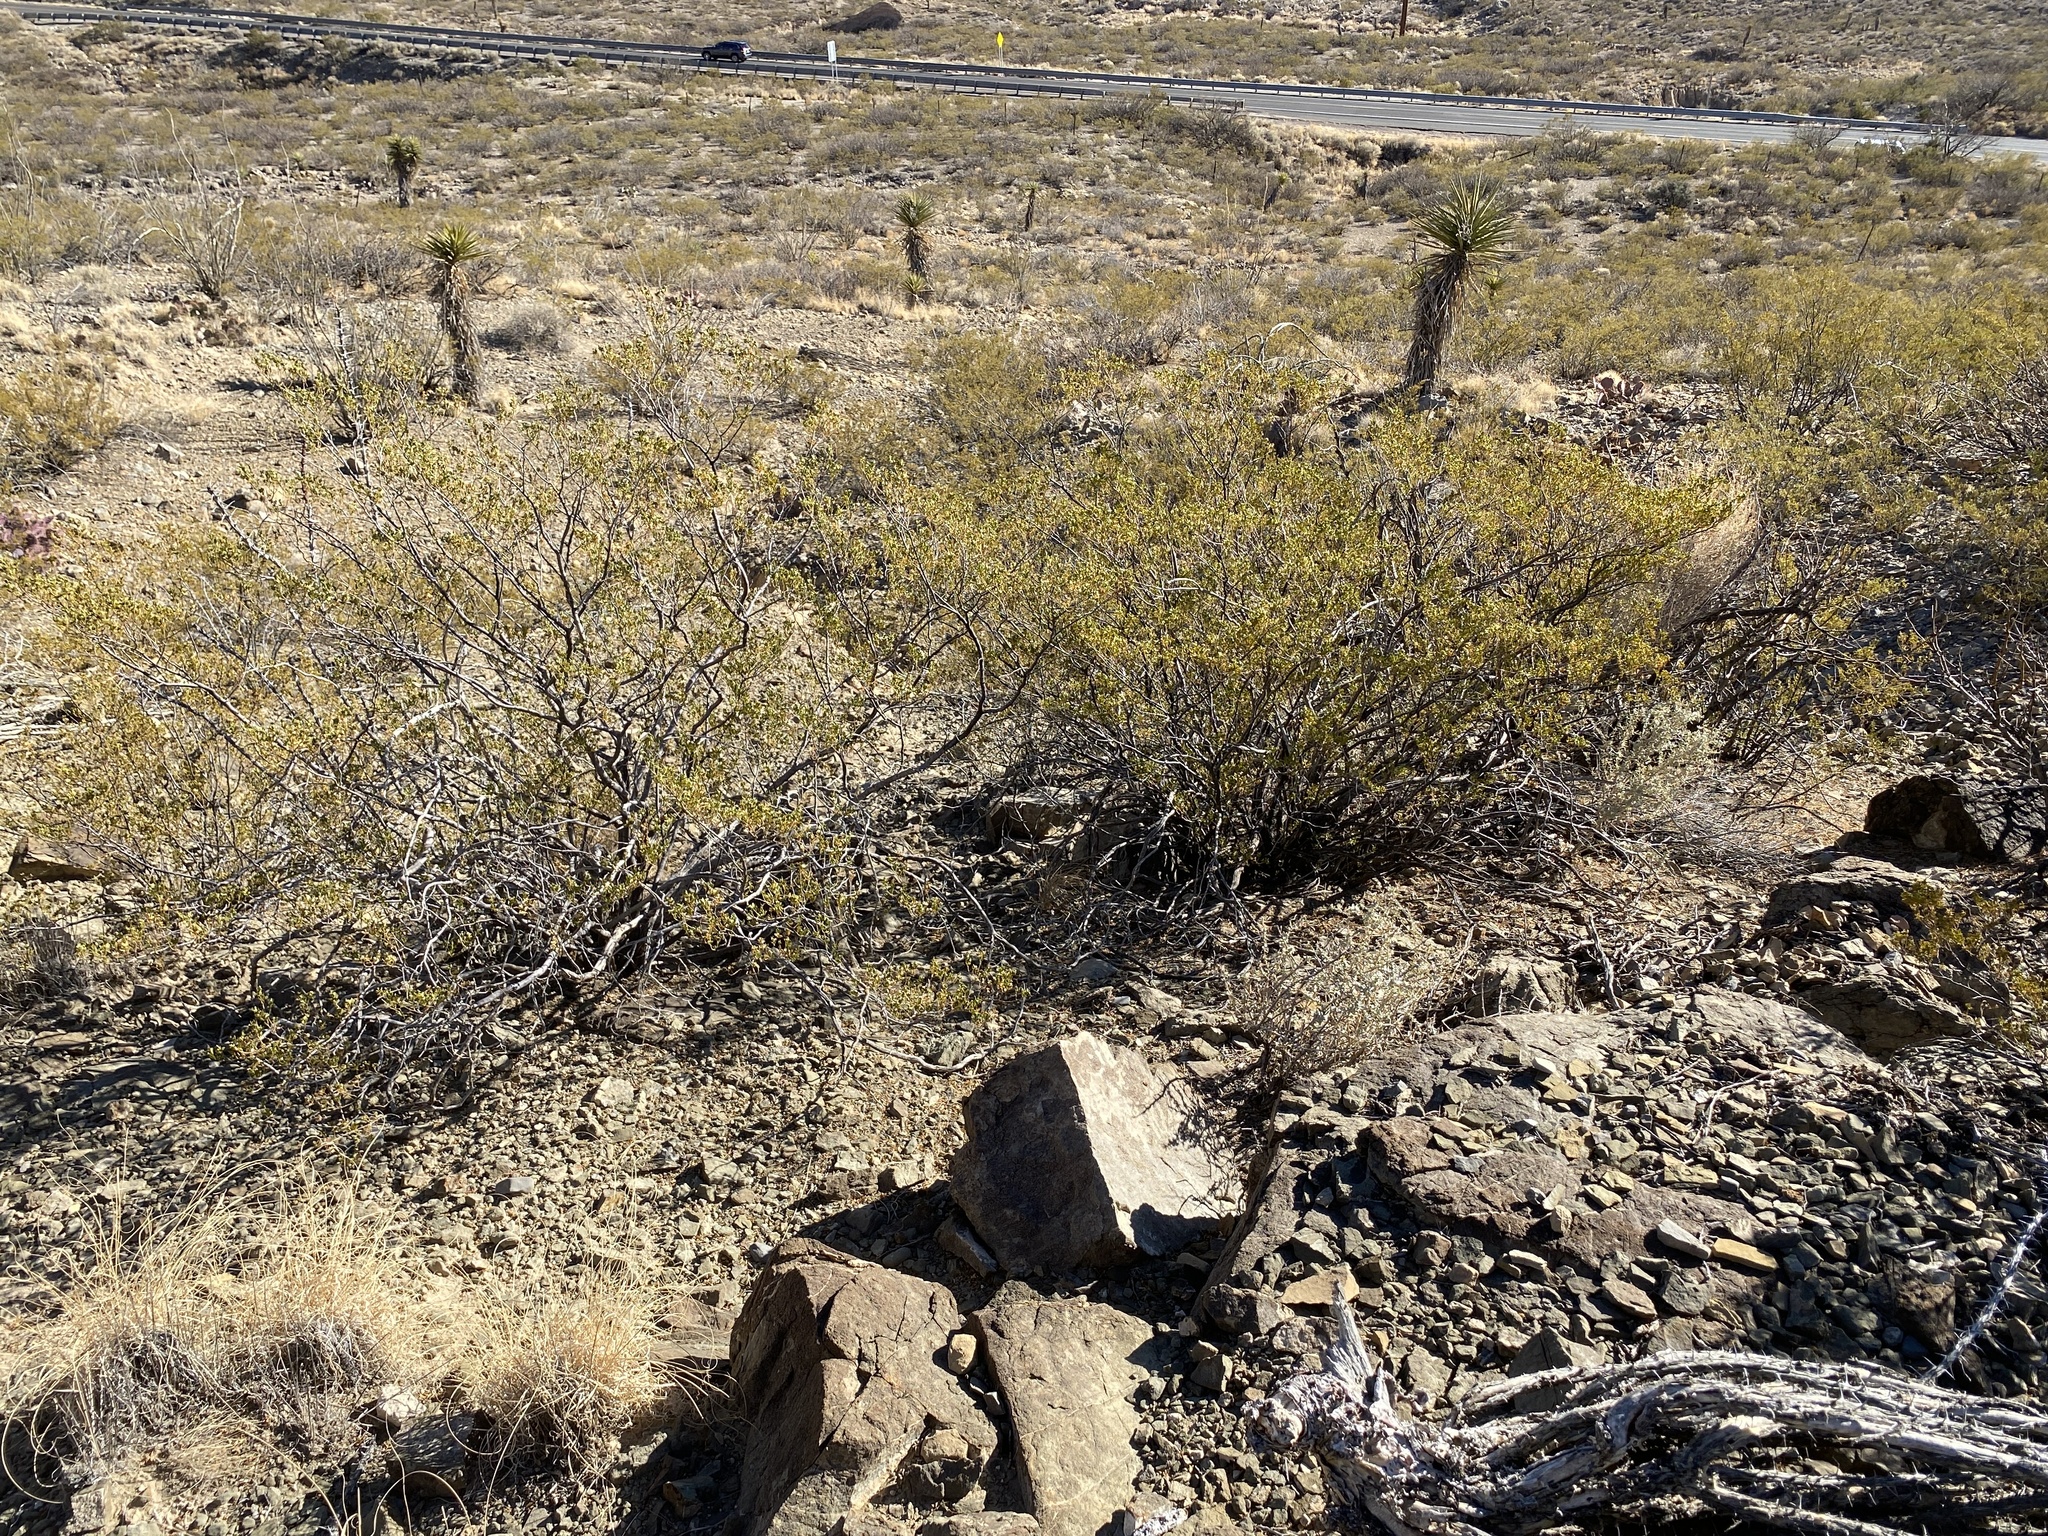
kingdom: Plantae
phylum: Tracheophyta
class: Magnoliopsida
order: Zygophyllales
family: Zygophyllaceae
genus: Larrea
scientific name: Larrea tridentata
